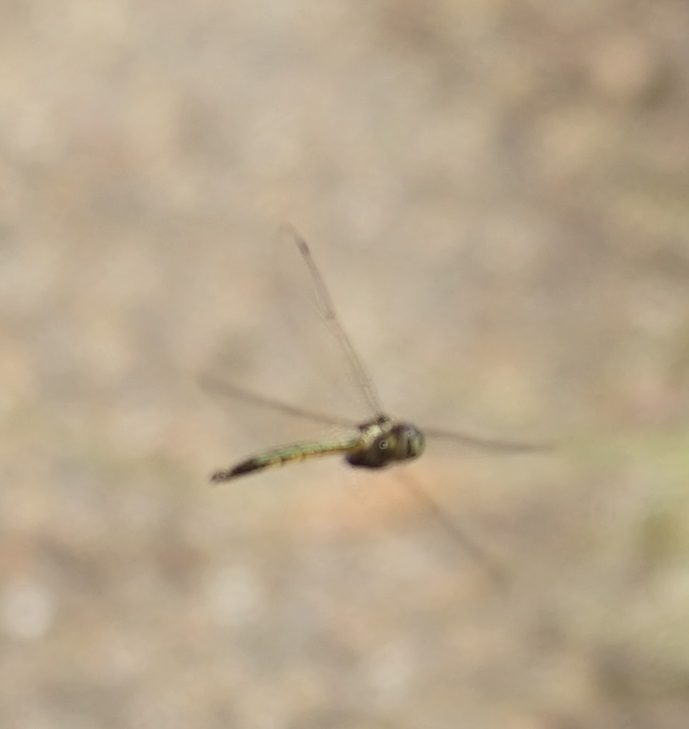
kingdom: Animalia
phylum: Arthropoda
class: Insecta
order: Odonata
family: Corduliidae
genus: Hemicordulia
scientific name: Hemicordulia australiae
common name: Sentry dragonfly
